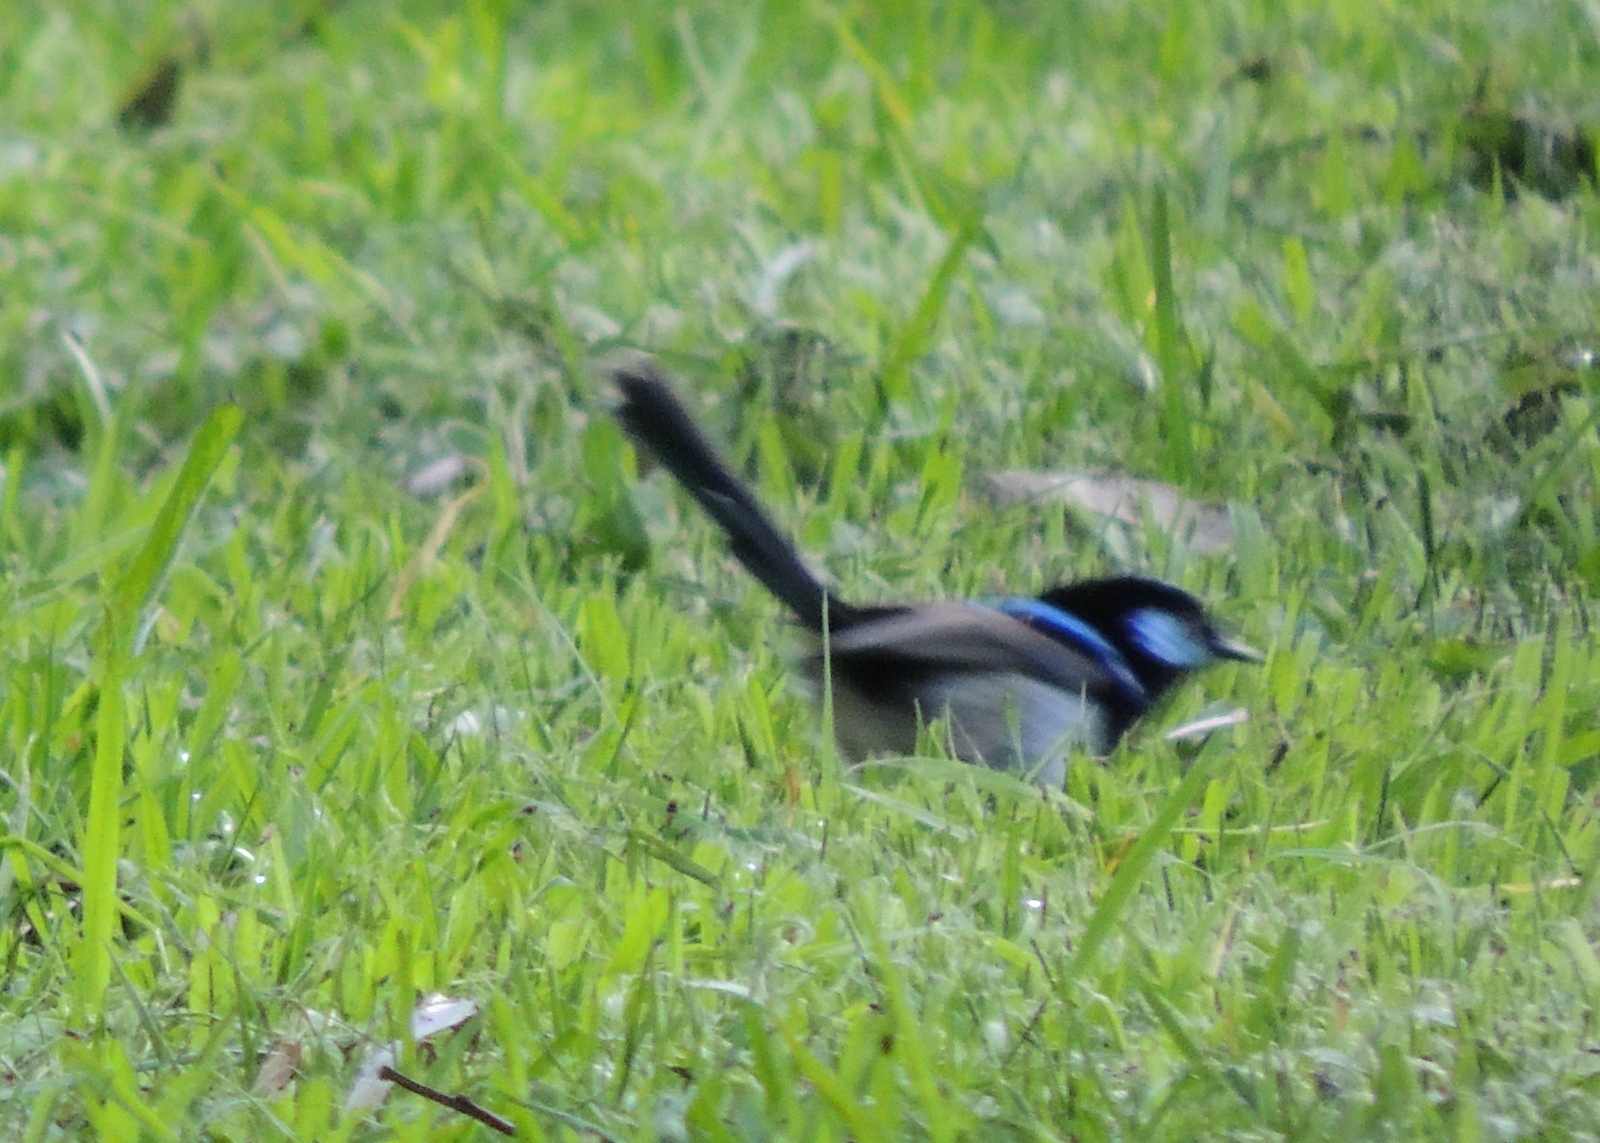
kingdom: Animalia
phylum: Chordata
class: Aves
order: Passeriformes
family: Maluridae
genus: Malurus
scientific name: Malurus cyaneus
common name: Superb fairywren
